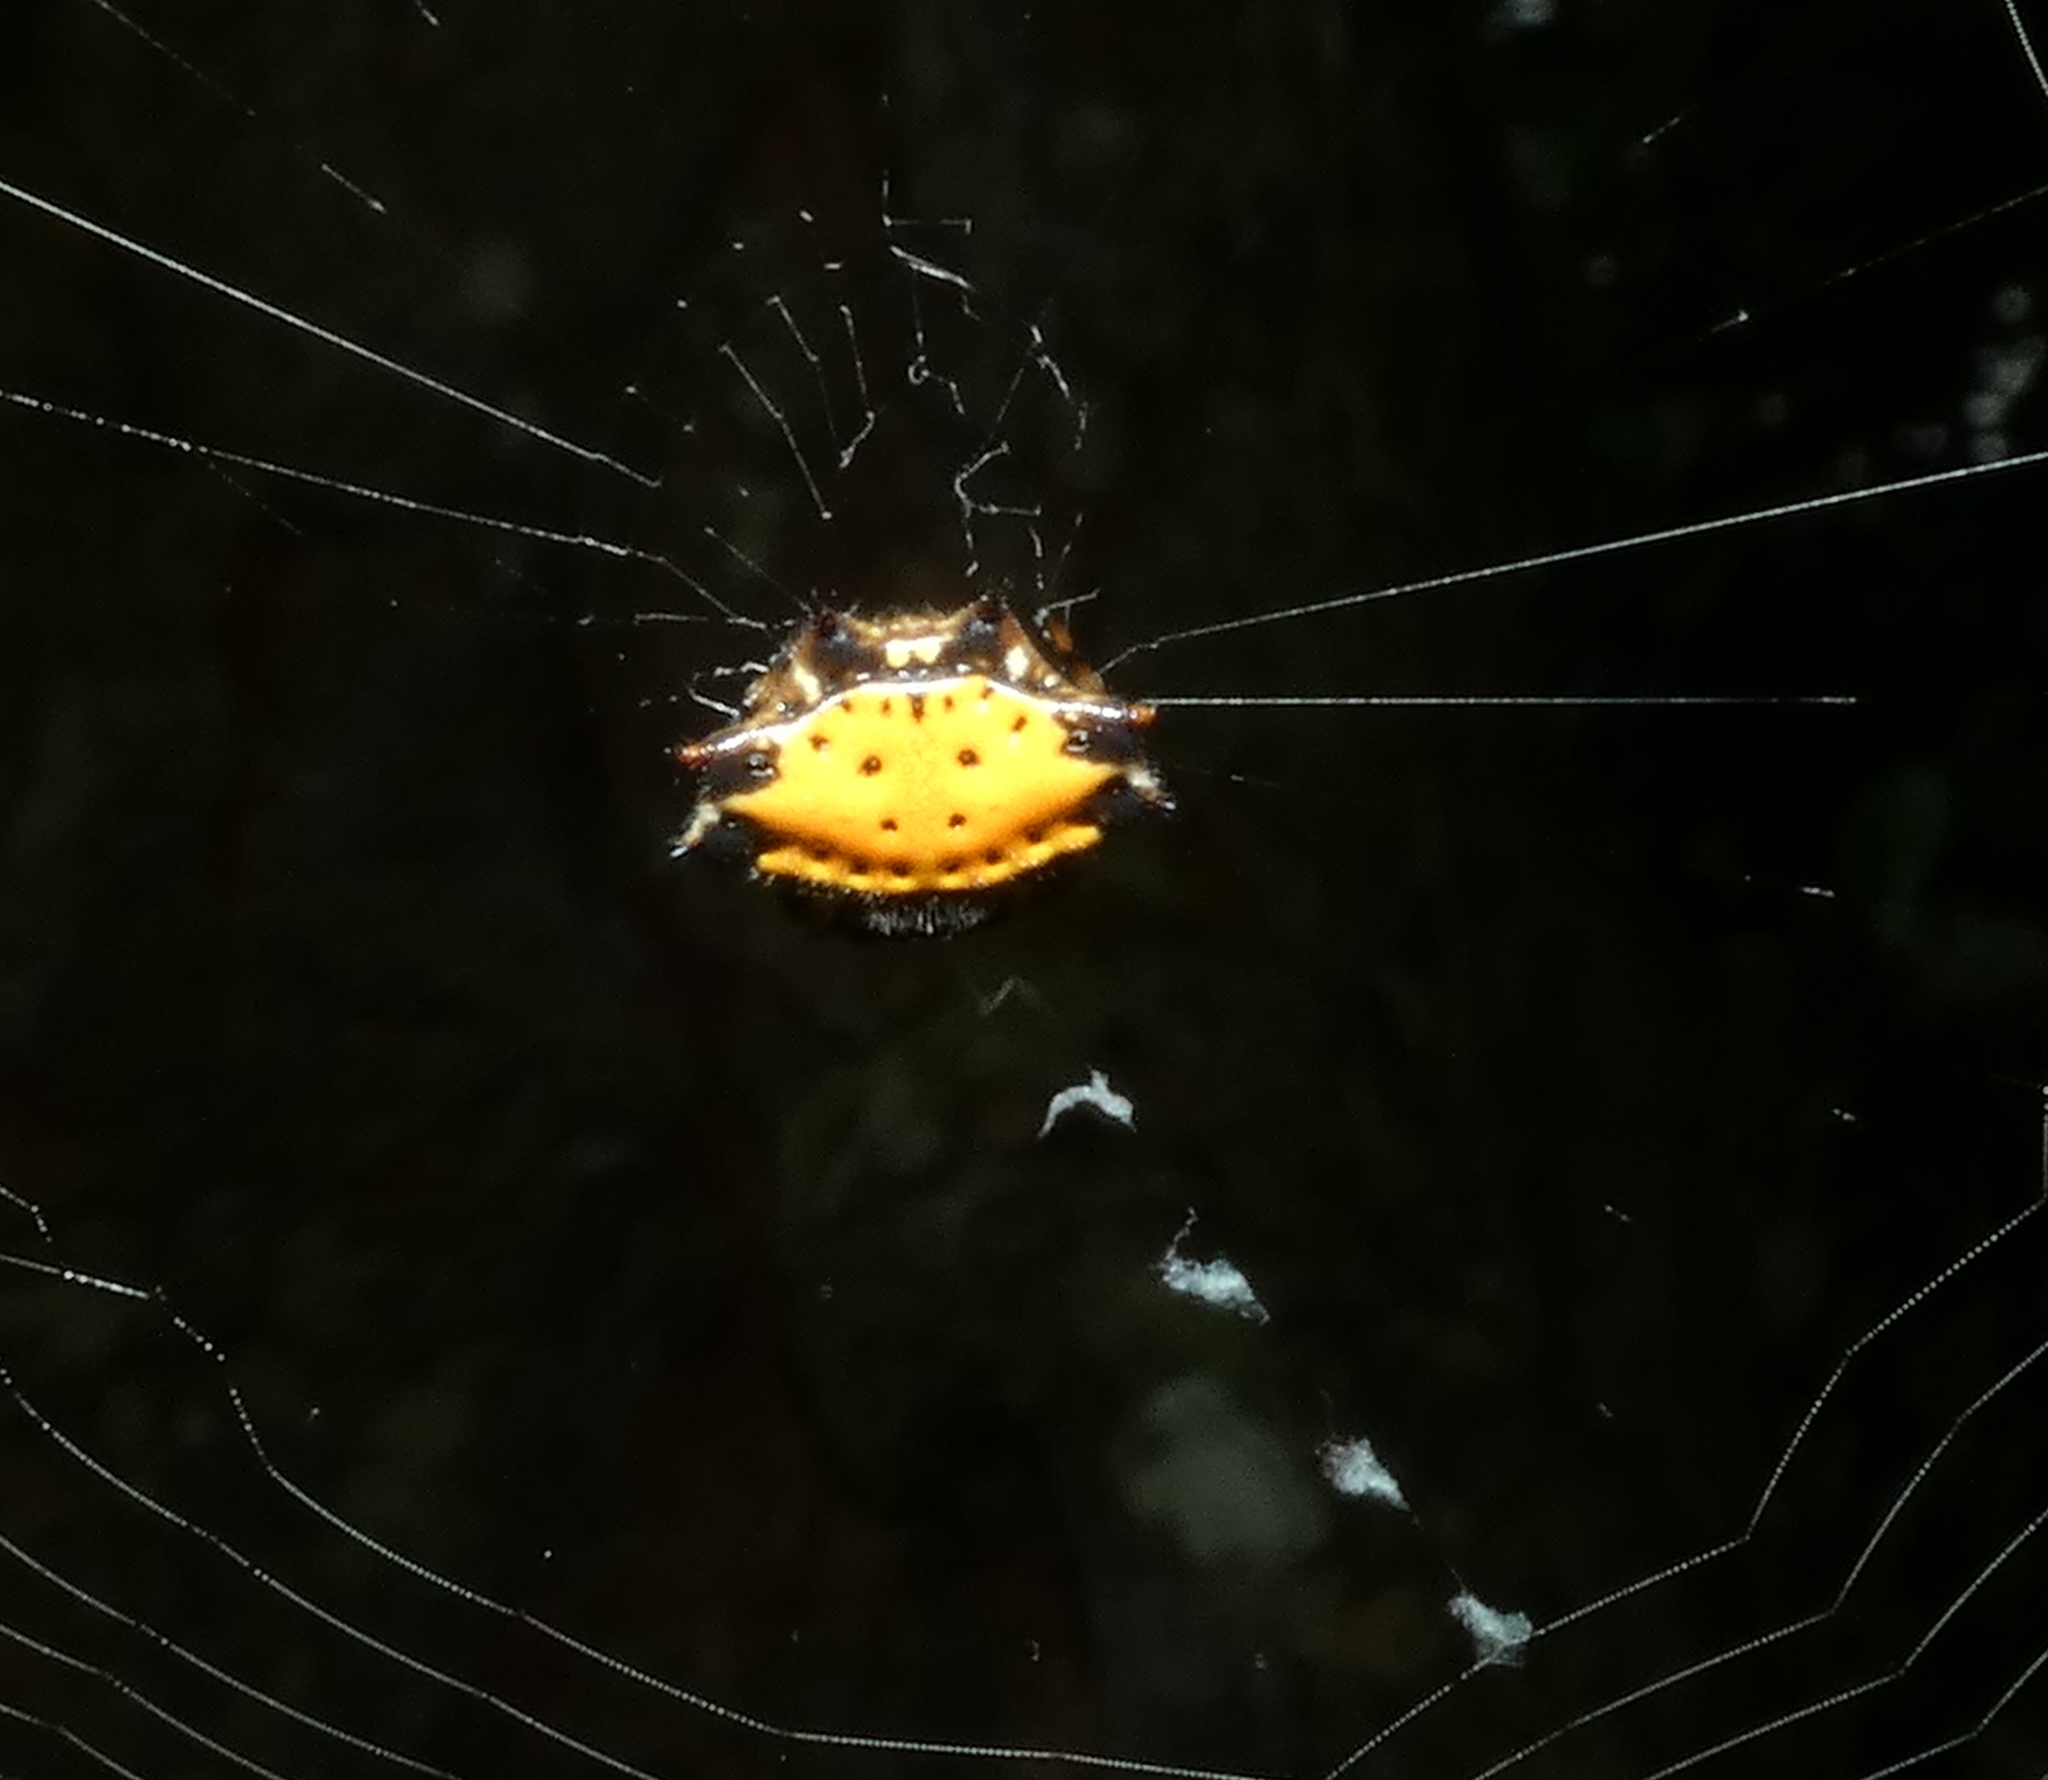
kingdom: Animalia
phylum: Arthropoda
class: Arachnida
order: Araneae
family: Araneidae
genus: Gasteracantha
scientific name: Gasteracantha cancriformis
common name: Orb weavers
